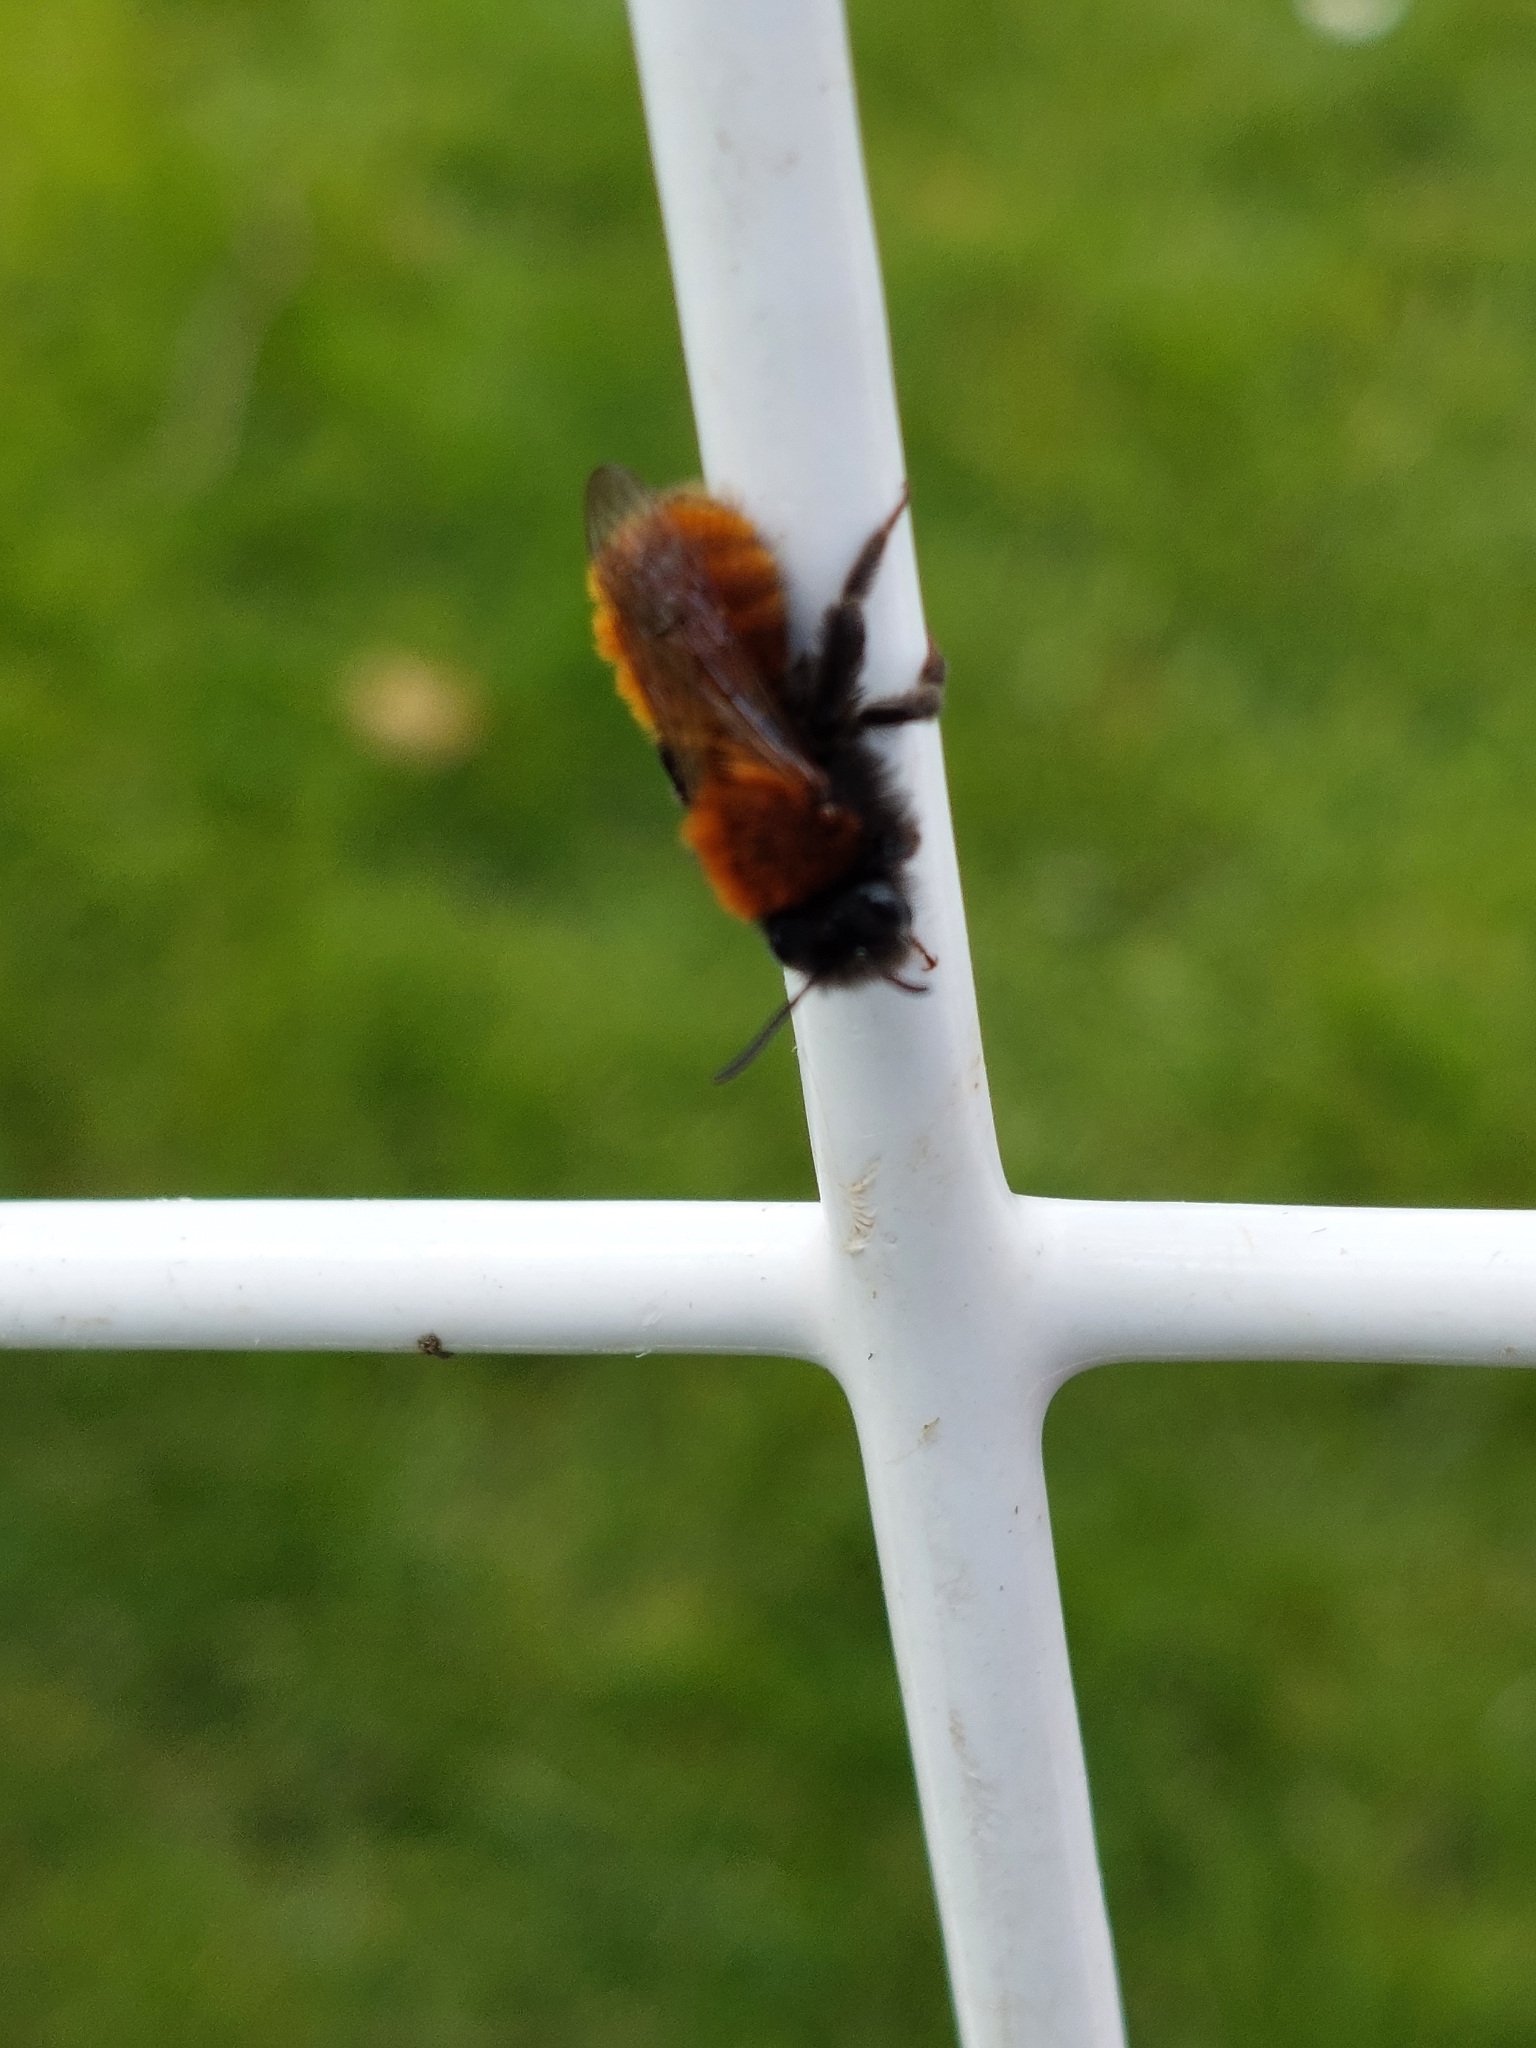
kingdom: Animalia
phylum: Arthropoda
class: Insecta
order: Hymenoptera
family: Andrenidae
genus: Andrena
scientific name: Andrena fulva
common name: Tawny mining bee
